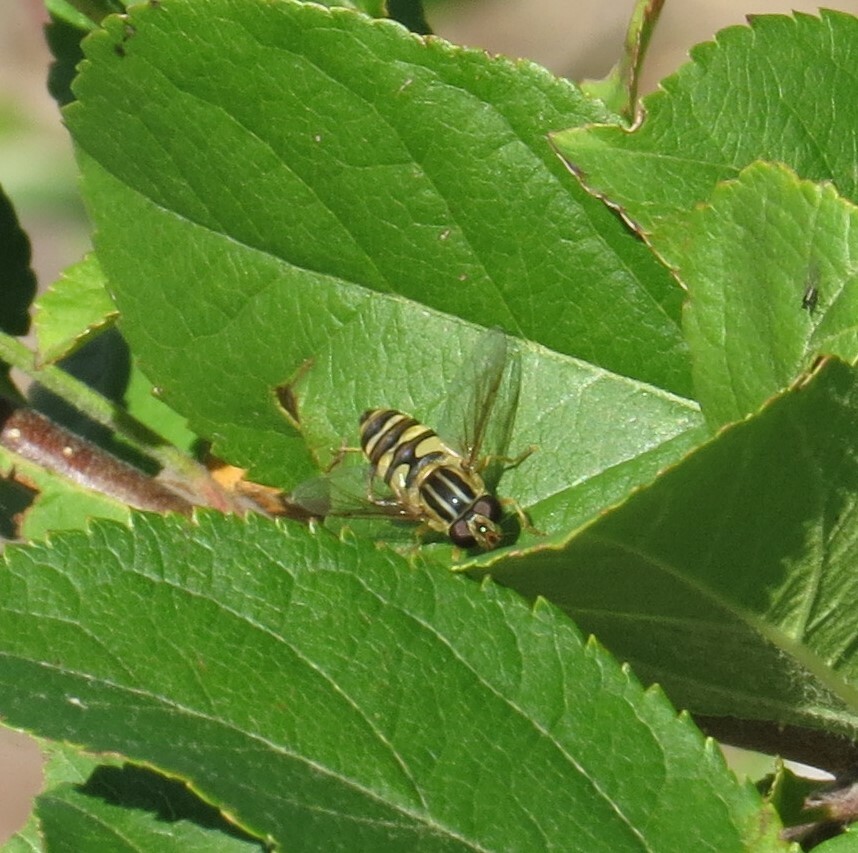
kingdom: Animalia
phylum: Arthropoda
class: Insecta
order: Diptera
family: Syrphidae
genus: Helophilus
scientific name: Helophilus fasciatus
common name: Narrow-headed marsh fly
